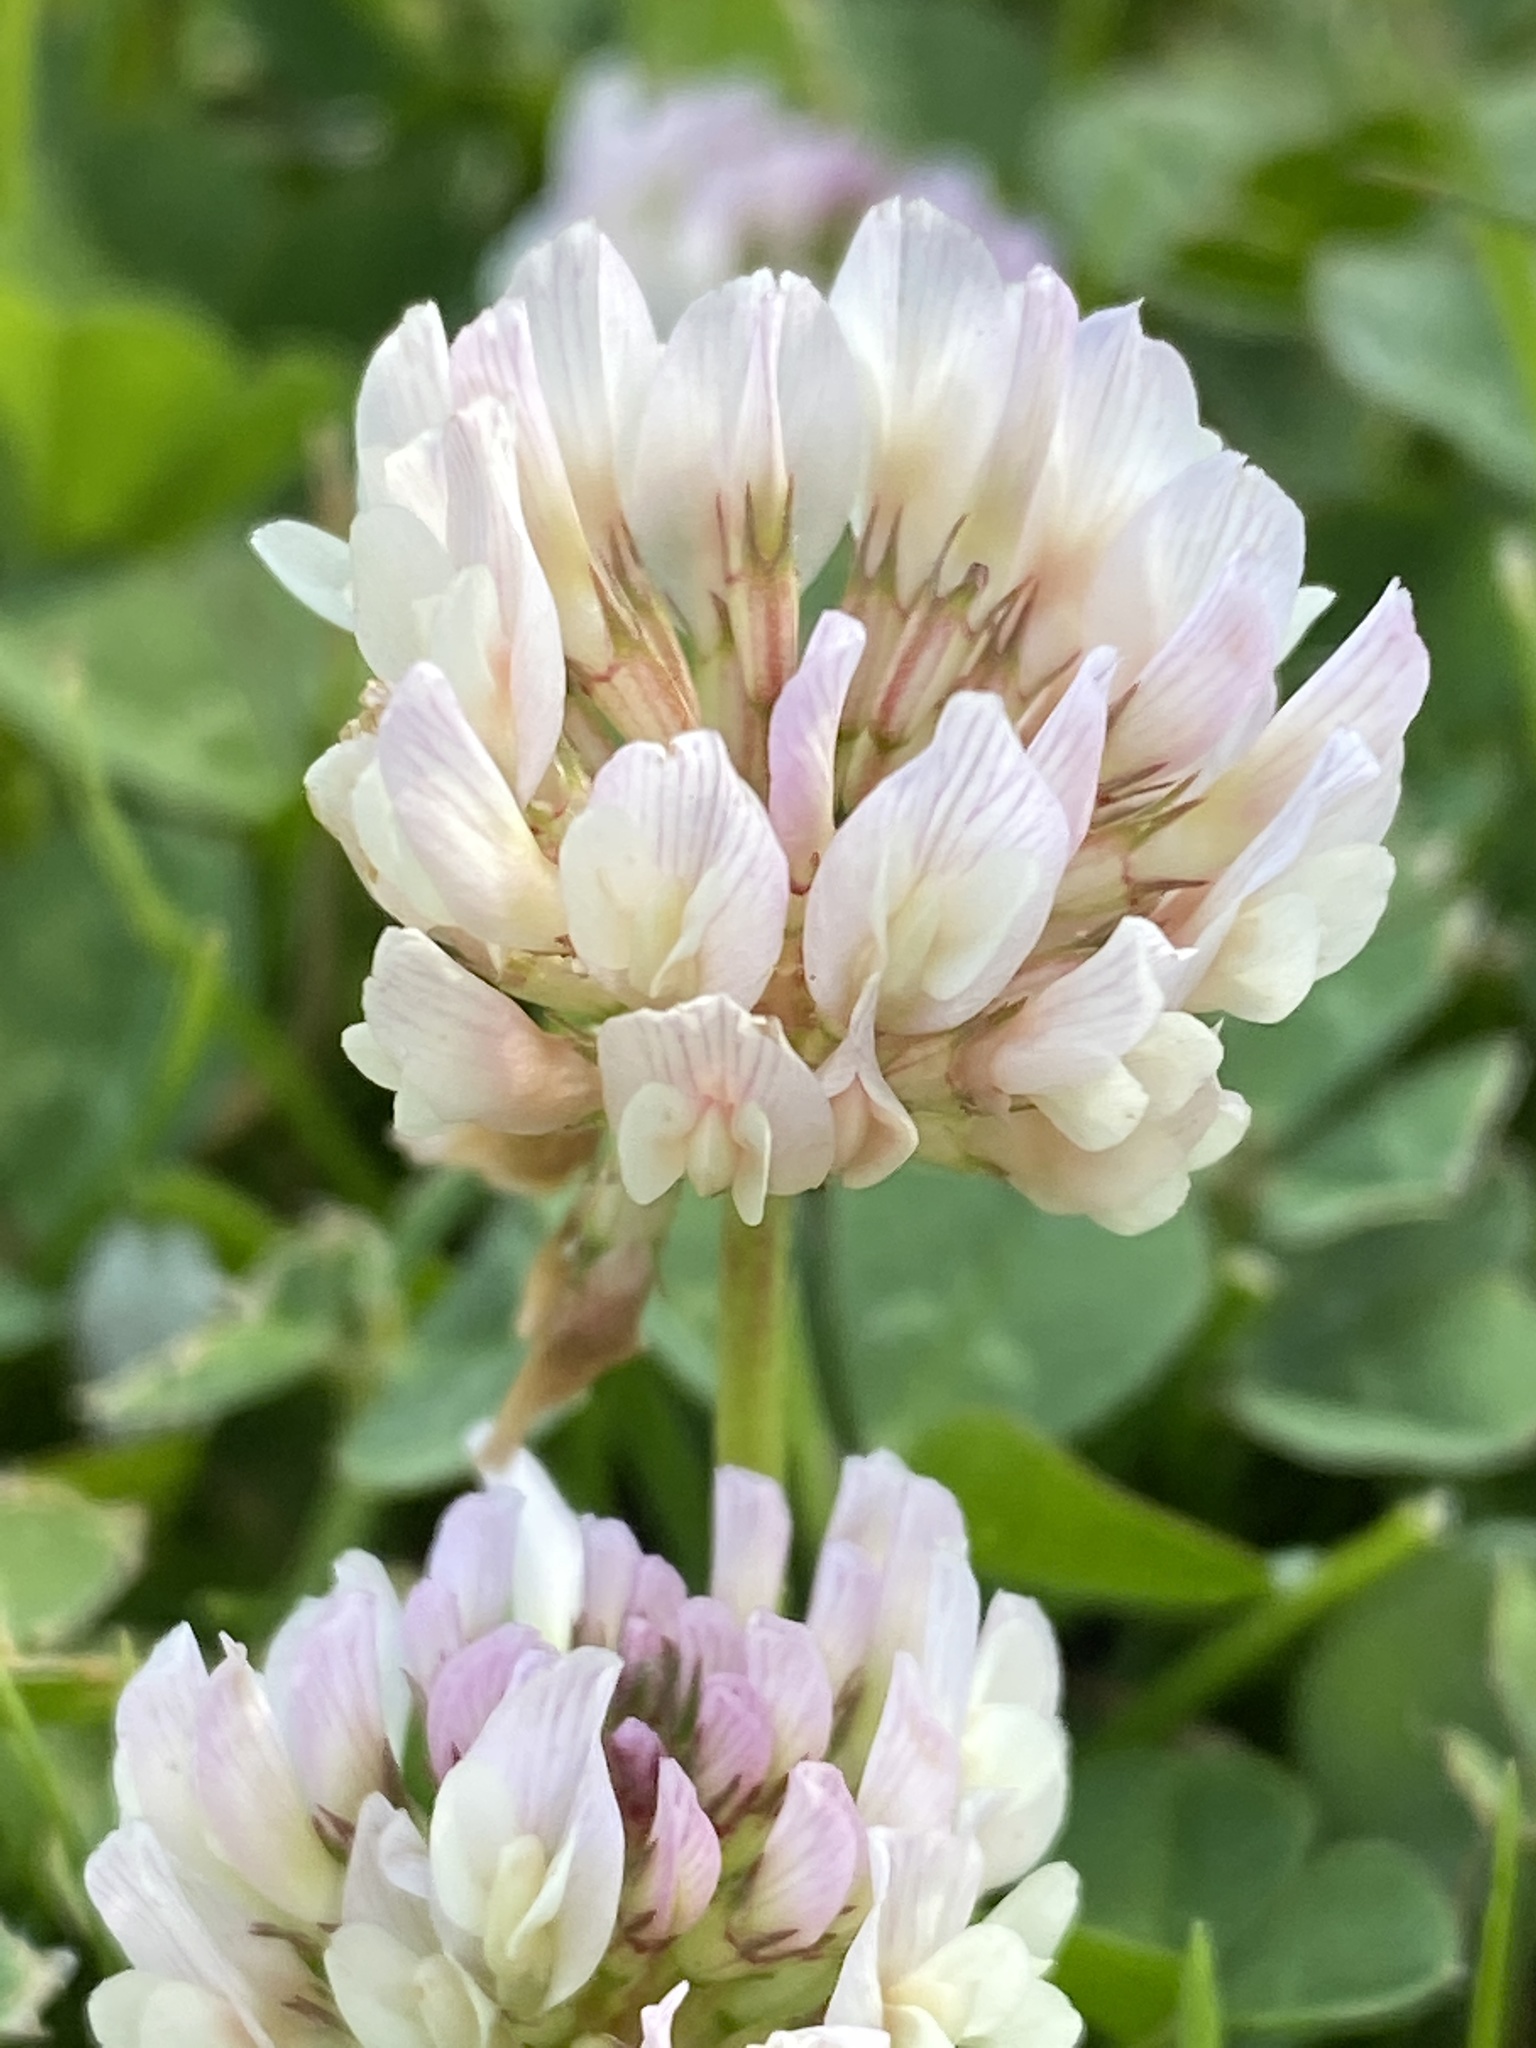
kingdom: Plantae
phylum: Tracheophyta
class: Magnoliopsida
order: Fabales
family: Fabaceae
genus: Trifolium
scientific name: Trifolium repens
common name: White clover
